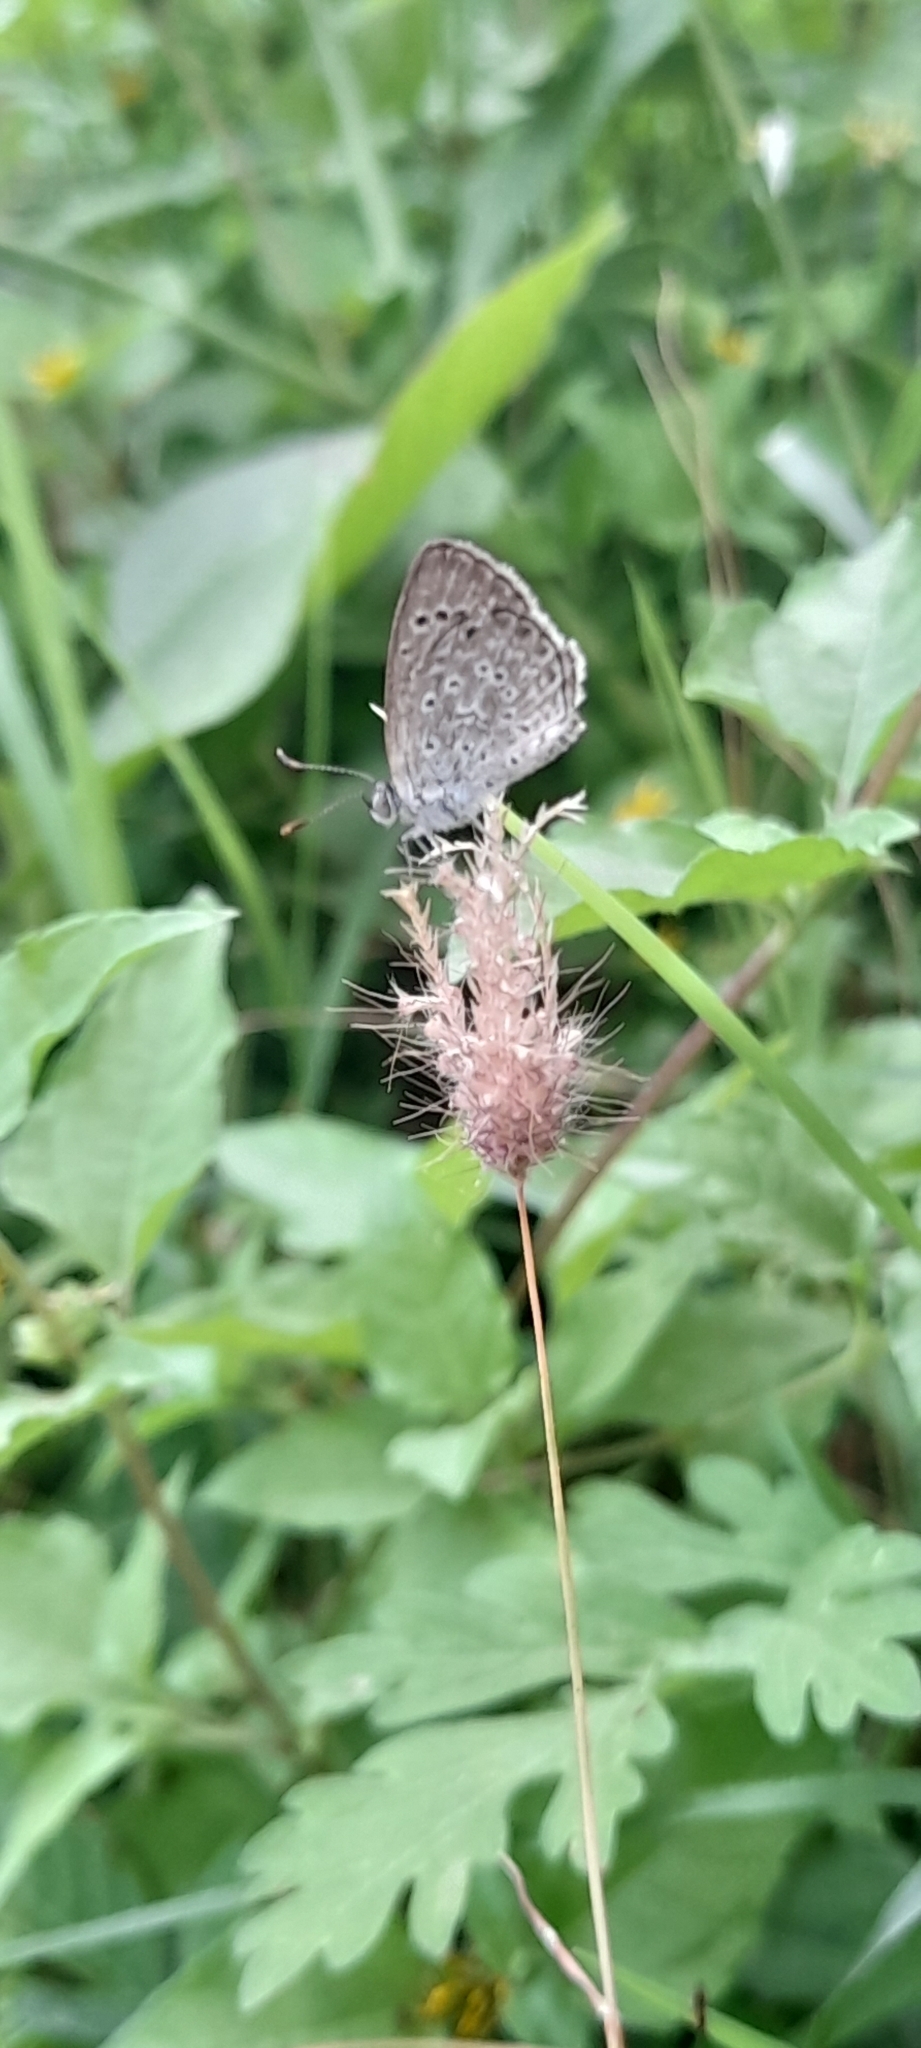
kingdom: Animalia
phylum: Arthropoda
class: Insecta
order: Lepidoptera
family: Lycaenidae
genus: Pseudozizeeria
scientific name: Pseudozizeeria maha
